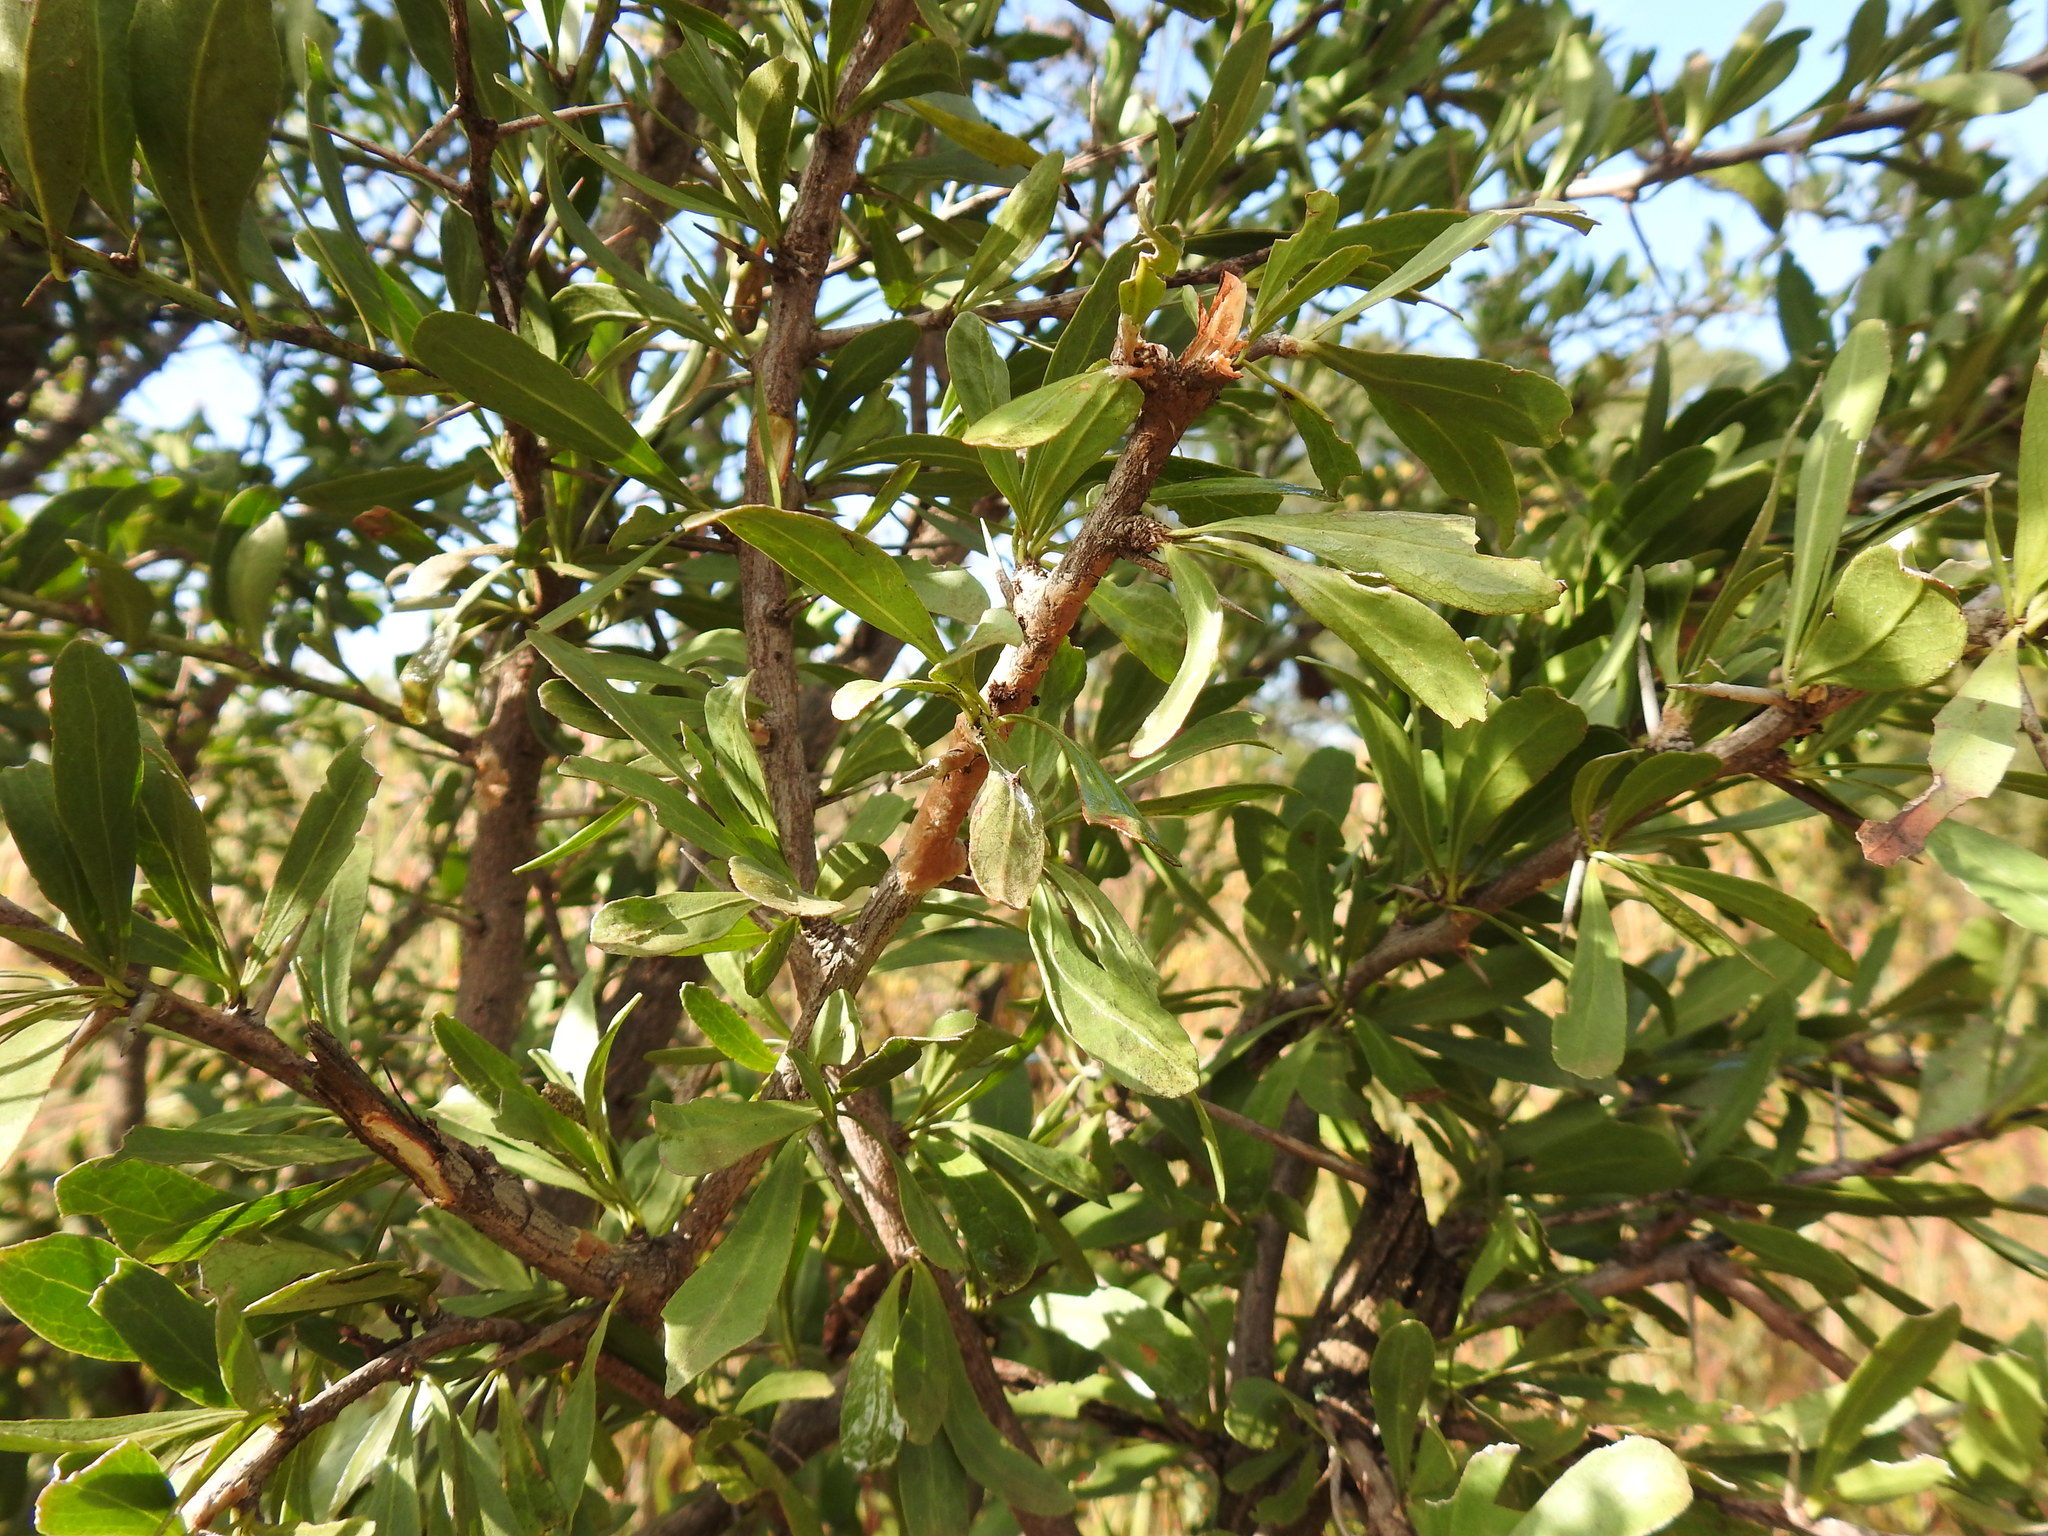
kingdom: Plantae
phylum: Tracheophyta
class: Magnoliopsida
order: Celastrales
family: Celastraceae
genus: Gymnosporia
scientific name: Gymnosporia buxifolia
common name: Common spike-thorn
